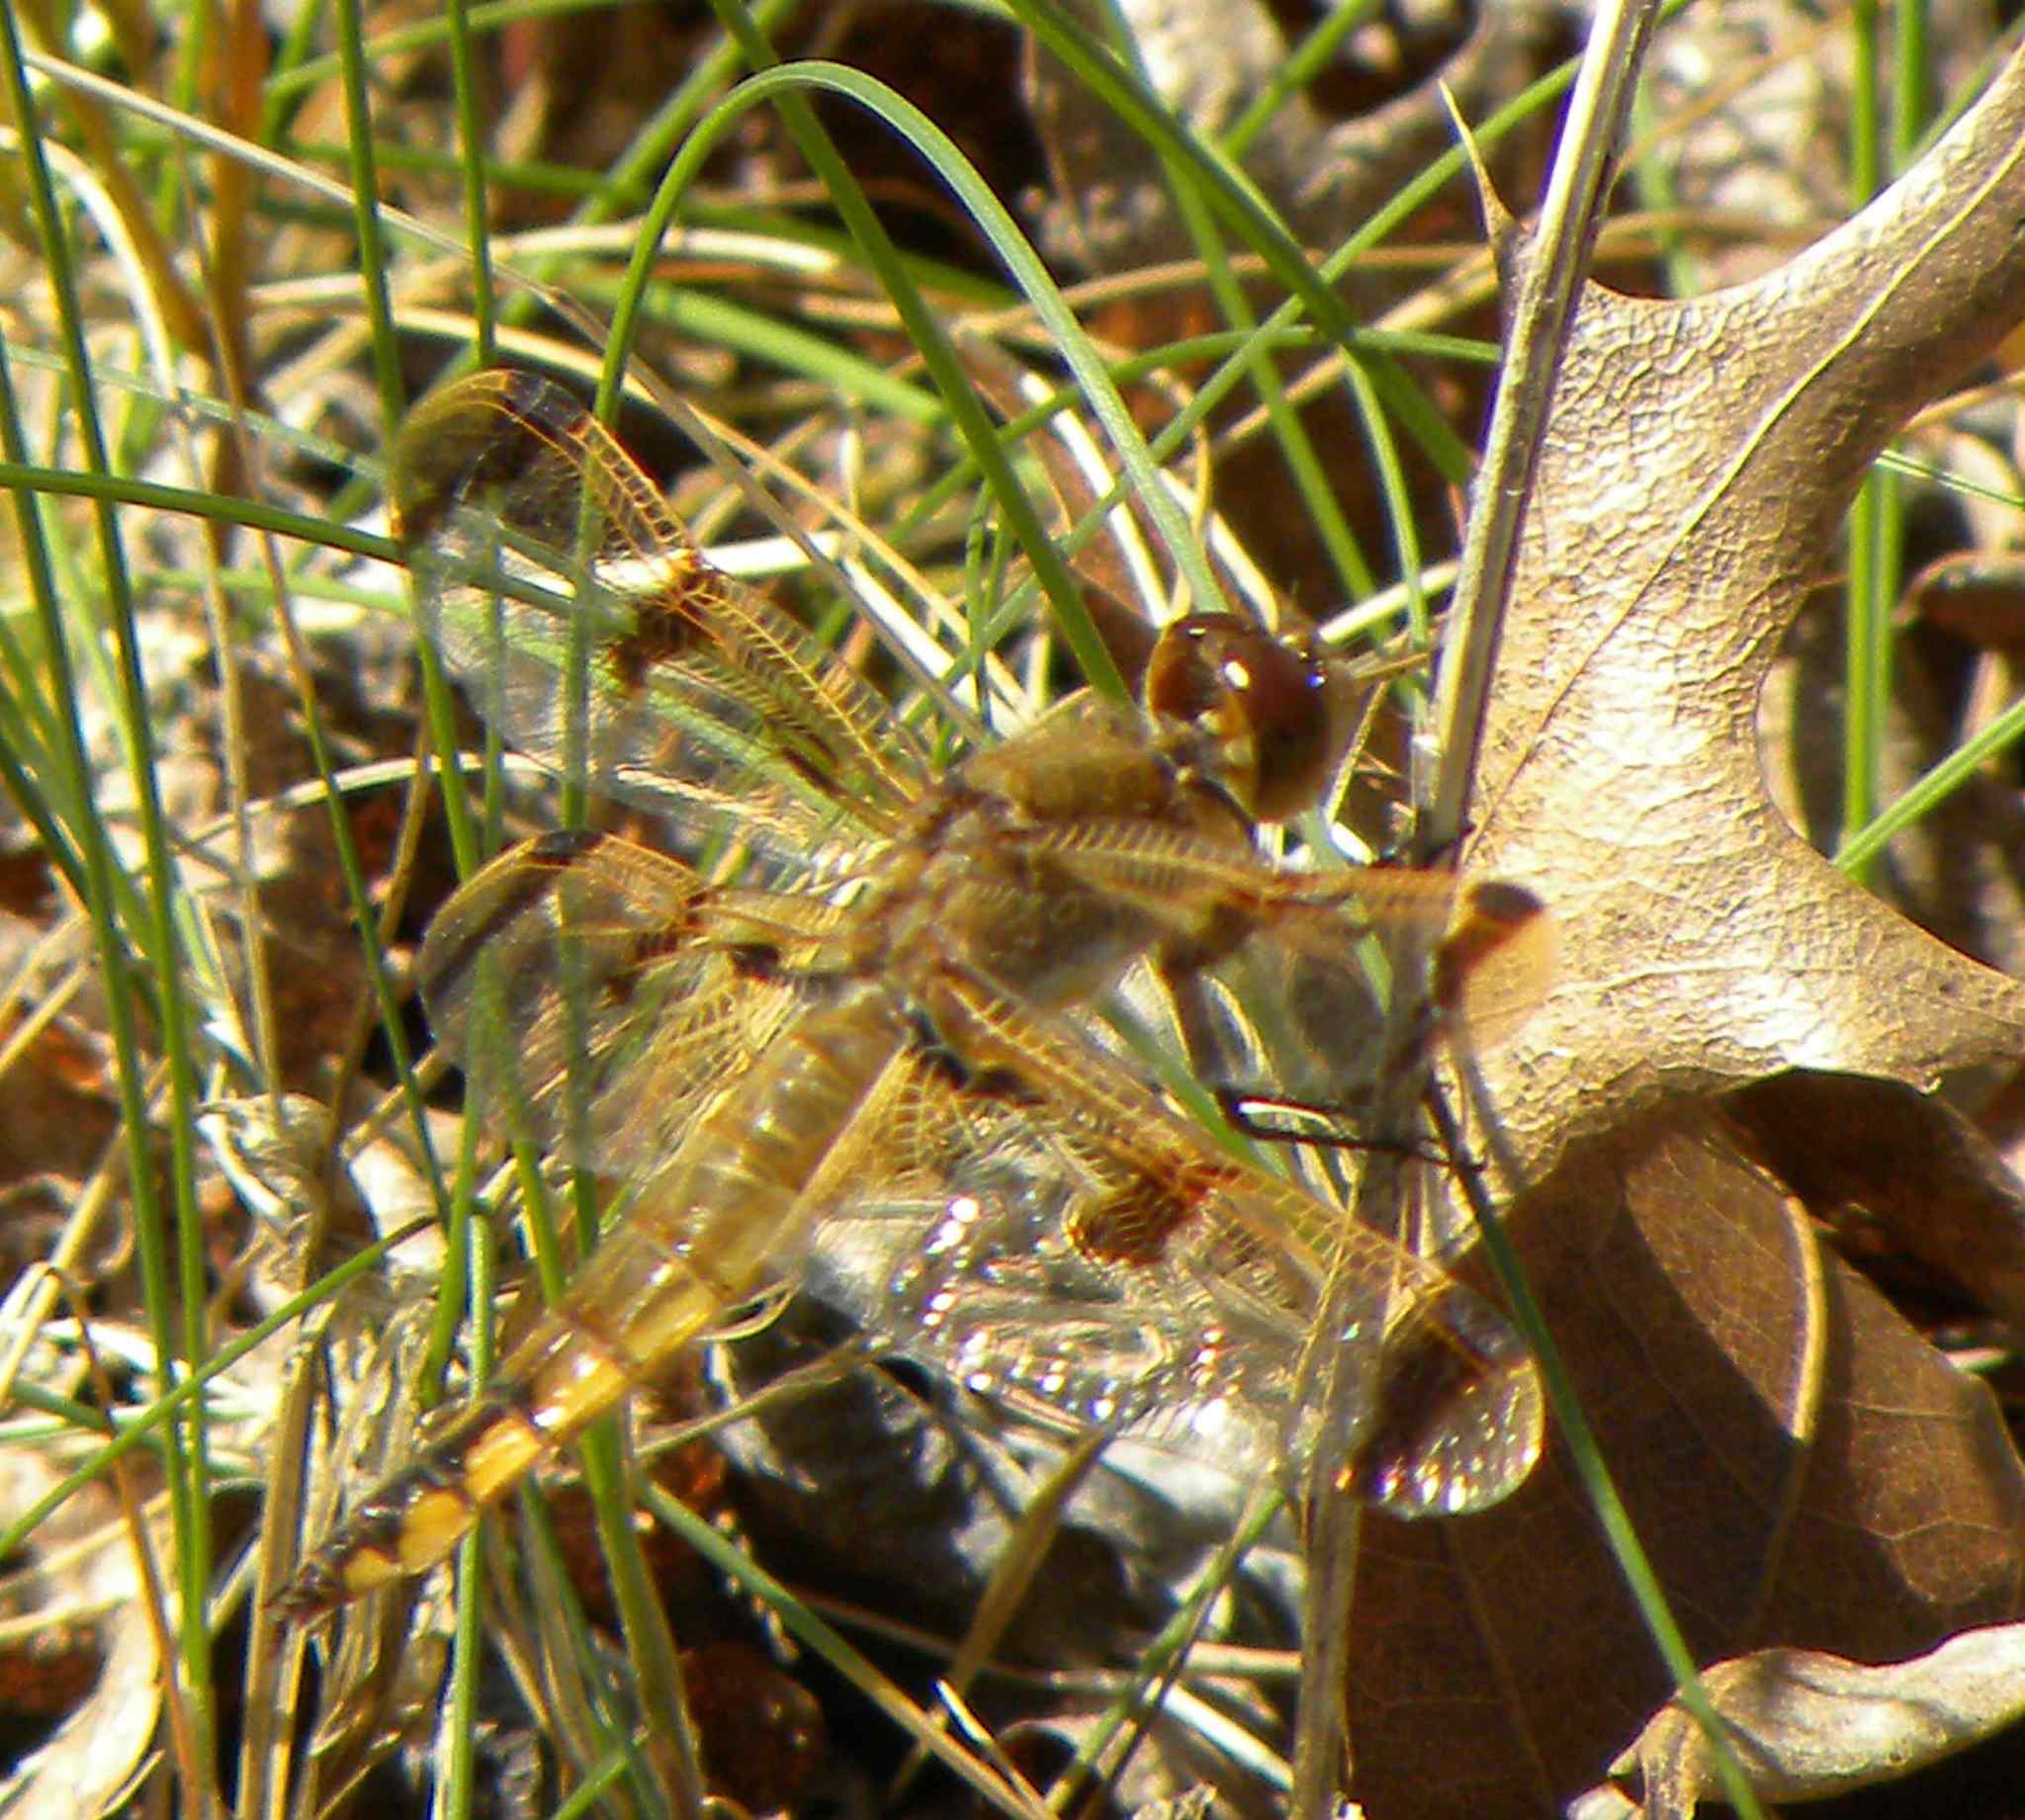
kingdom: Animalia
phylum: Arthropoda
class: Insecta
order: Odonata
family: Libellulidae
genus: Libellula
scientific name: Libellula semifasciata
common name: Painted skimmer
